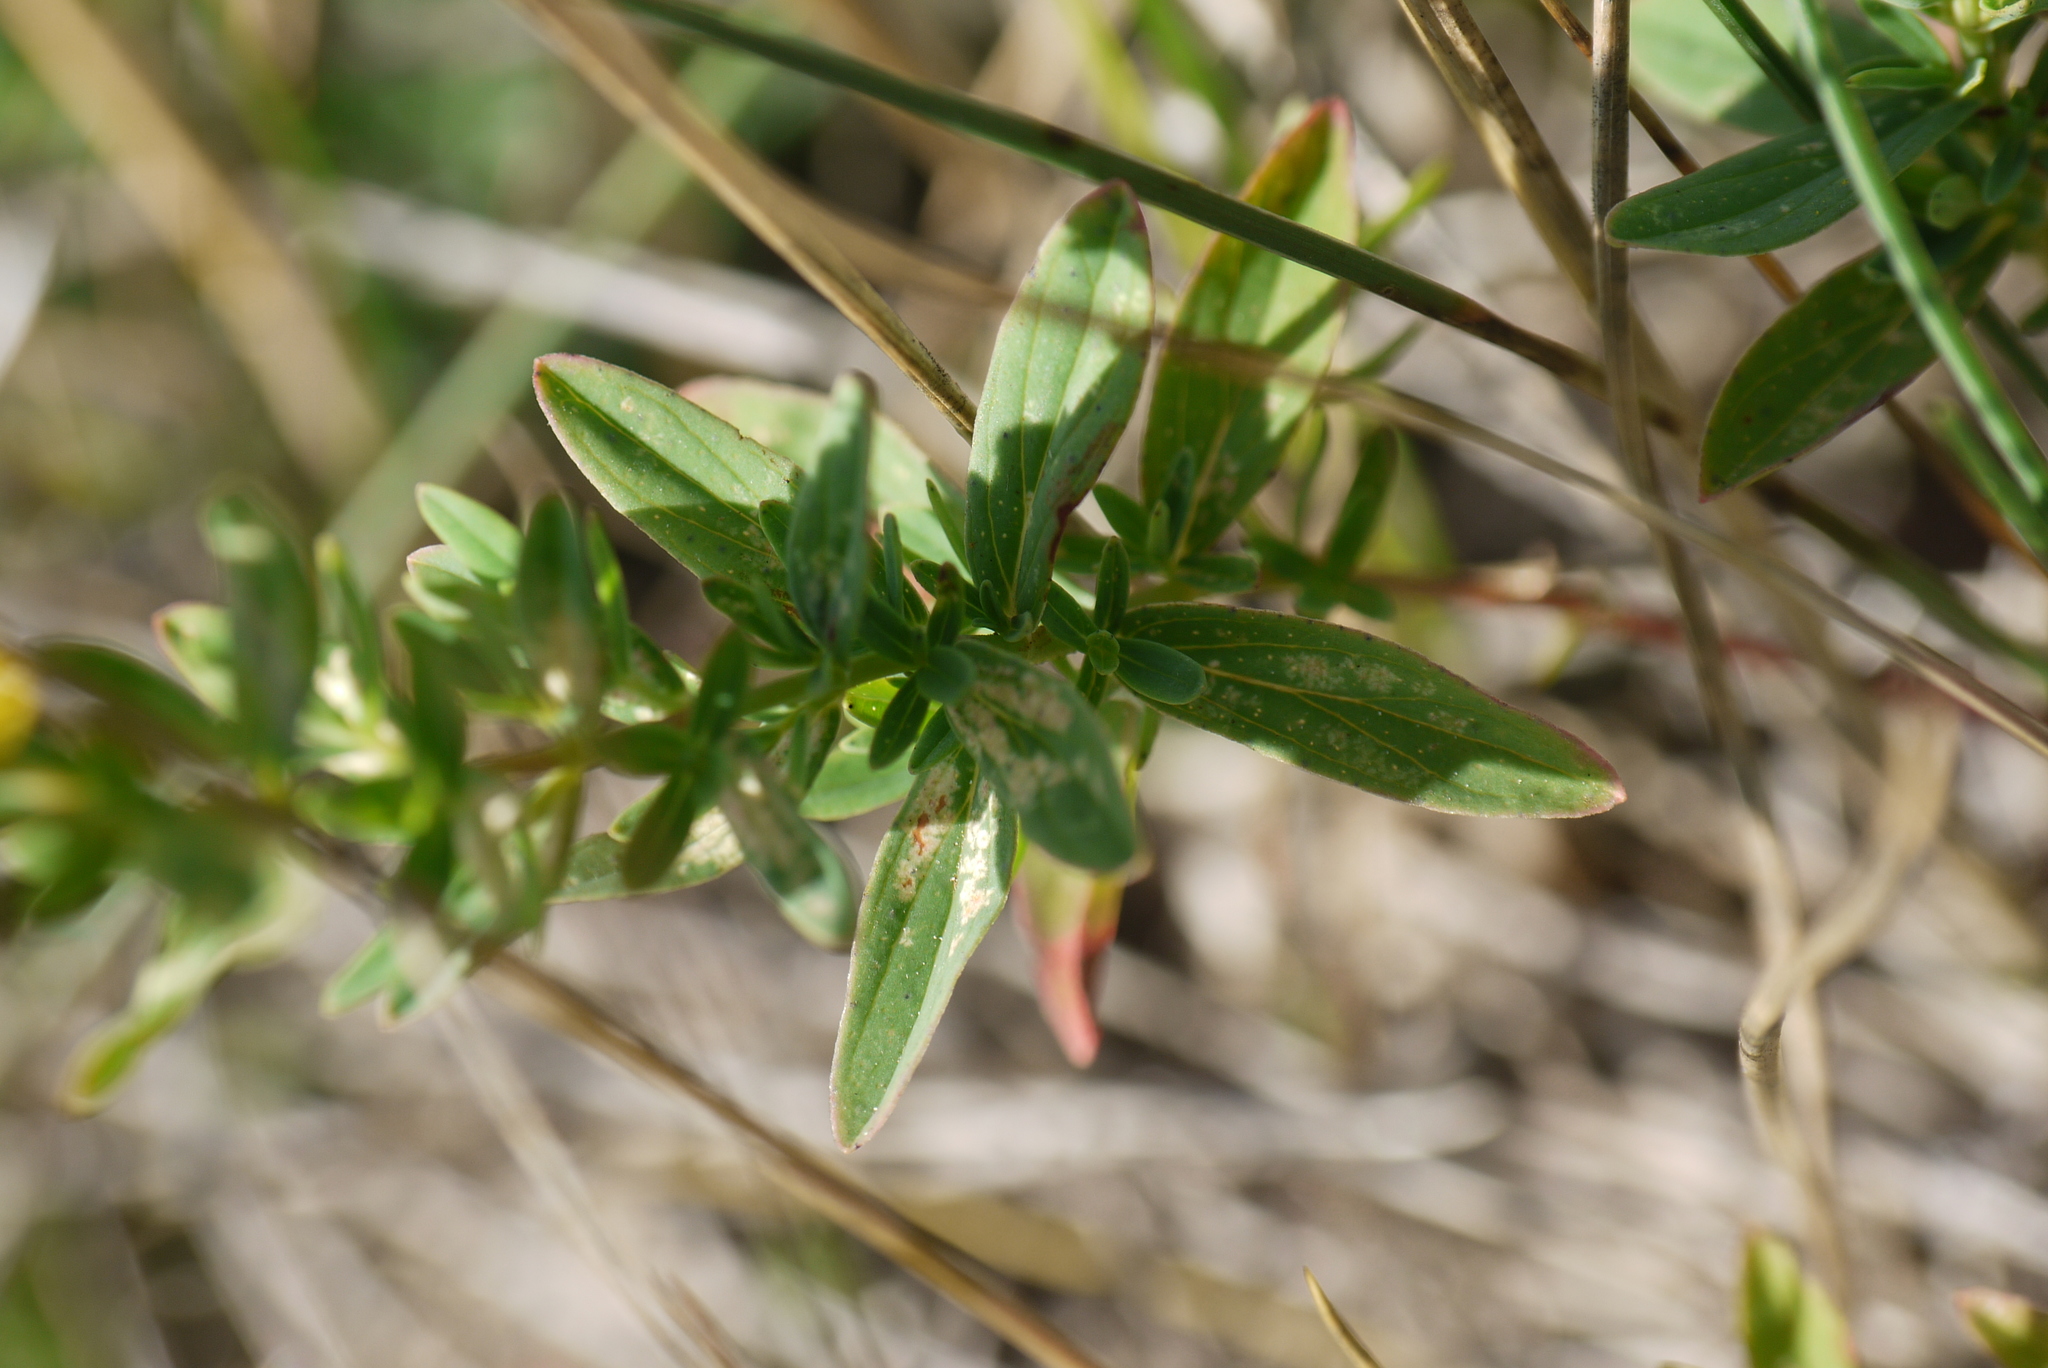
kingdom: Plantae
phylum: Tracheophyta
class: Magnoliopsida
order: Malpighiales
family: Hypericaceae
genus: Hypericum
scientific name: Hypericum desetangsii
